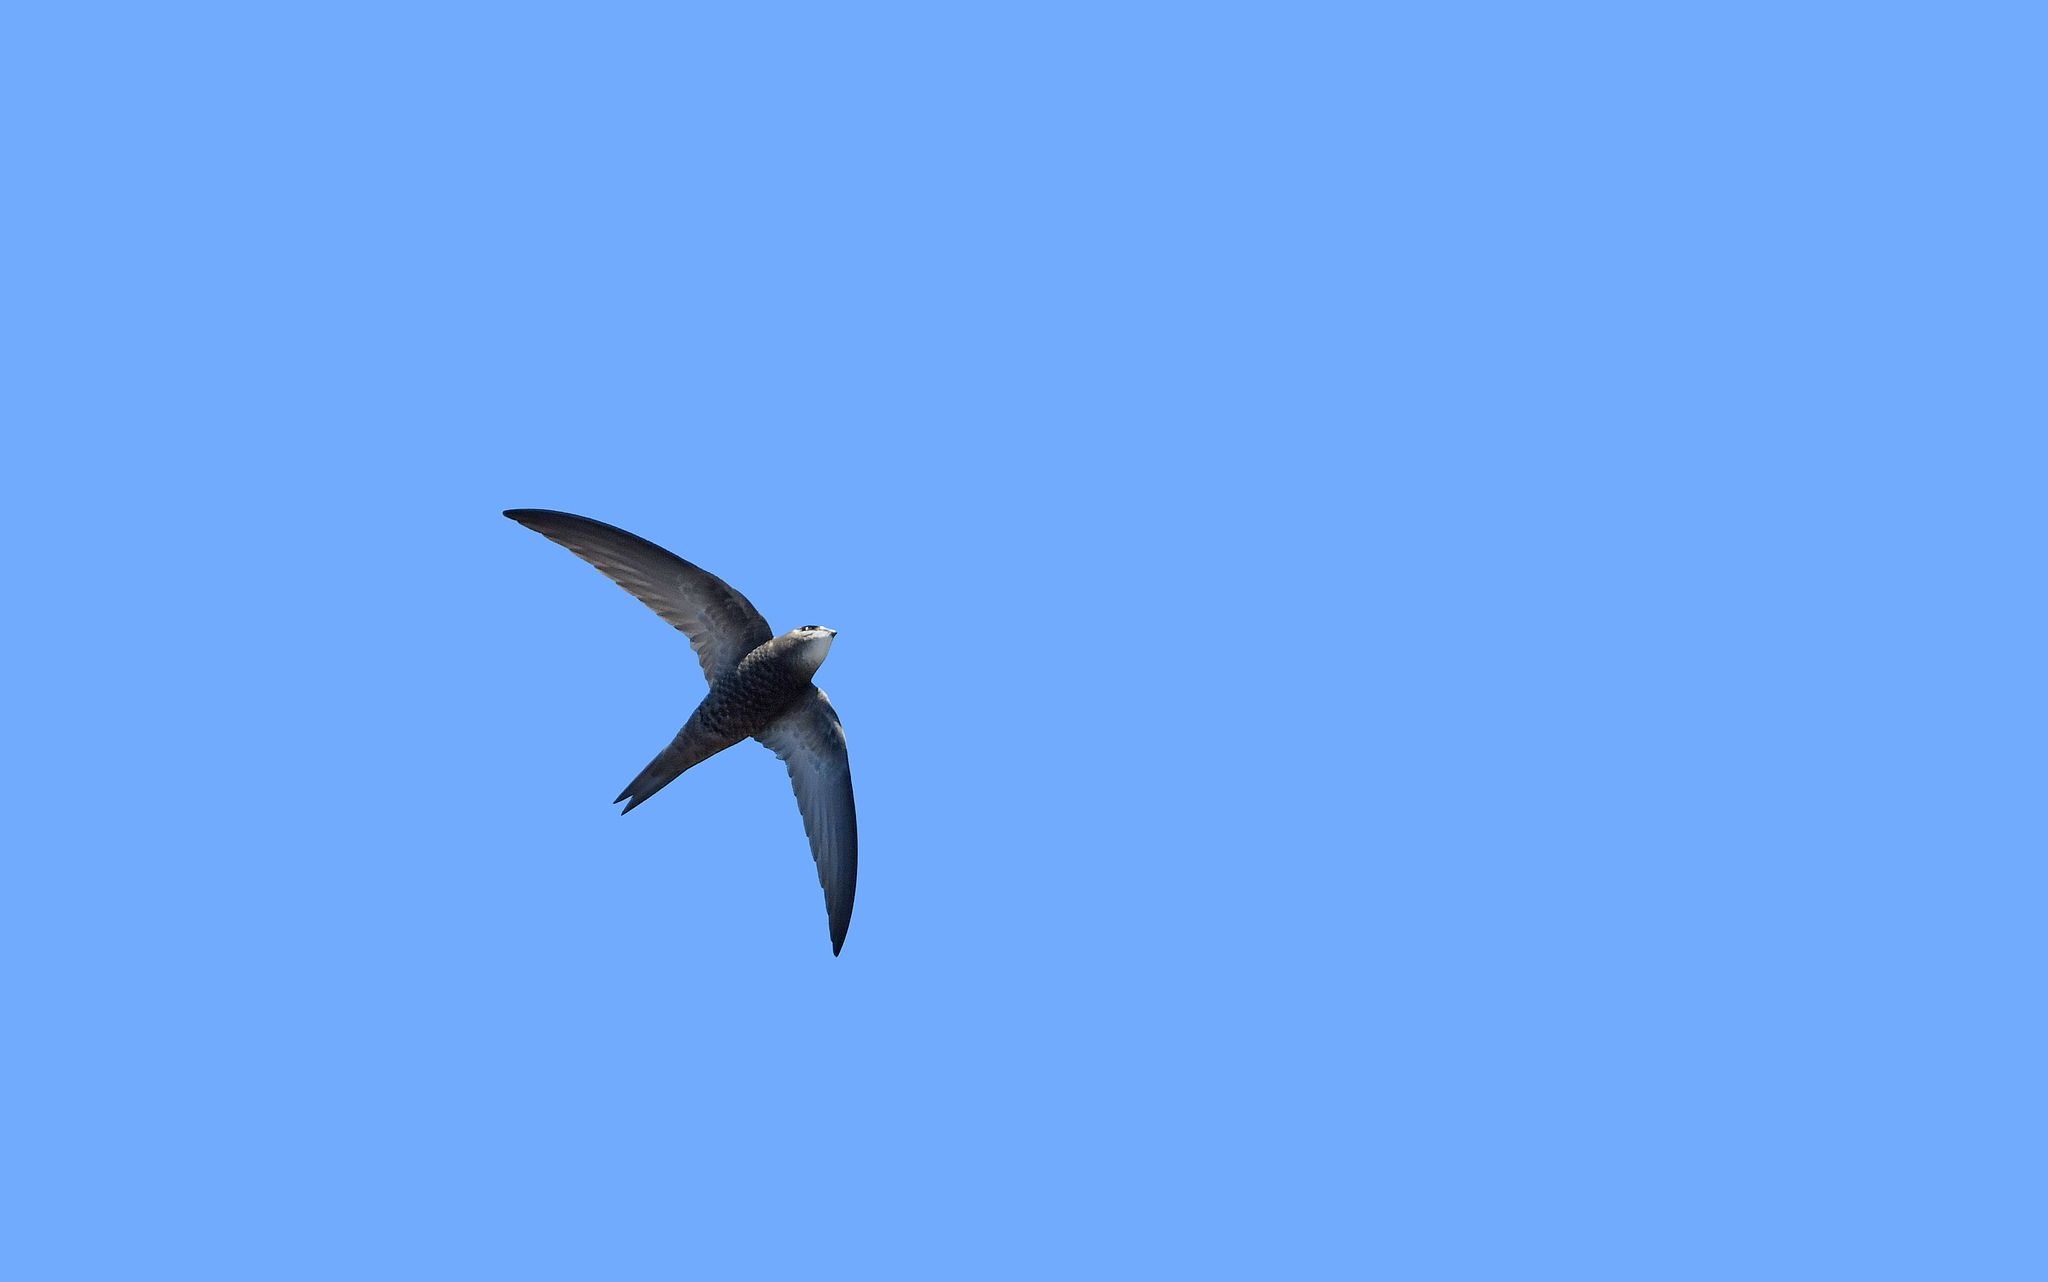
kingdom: Animalia
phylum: Chordata
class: Aves
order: Apodiformes
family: Apodidae
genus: Apus
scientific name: Apus pallidus
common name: Pallid swift
